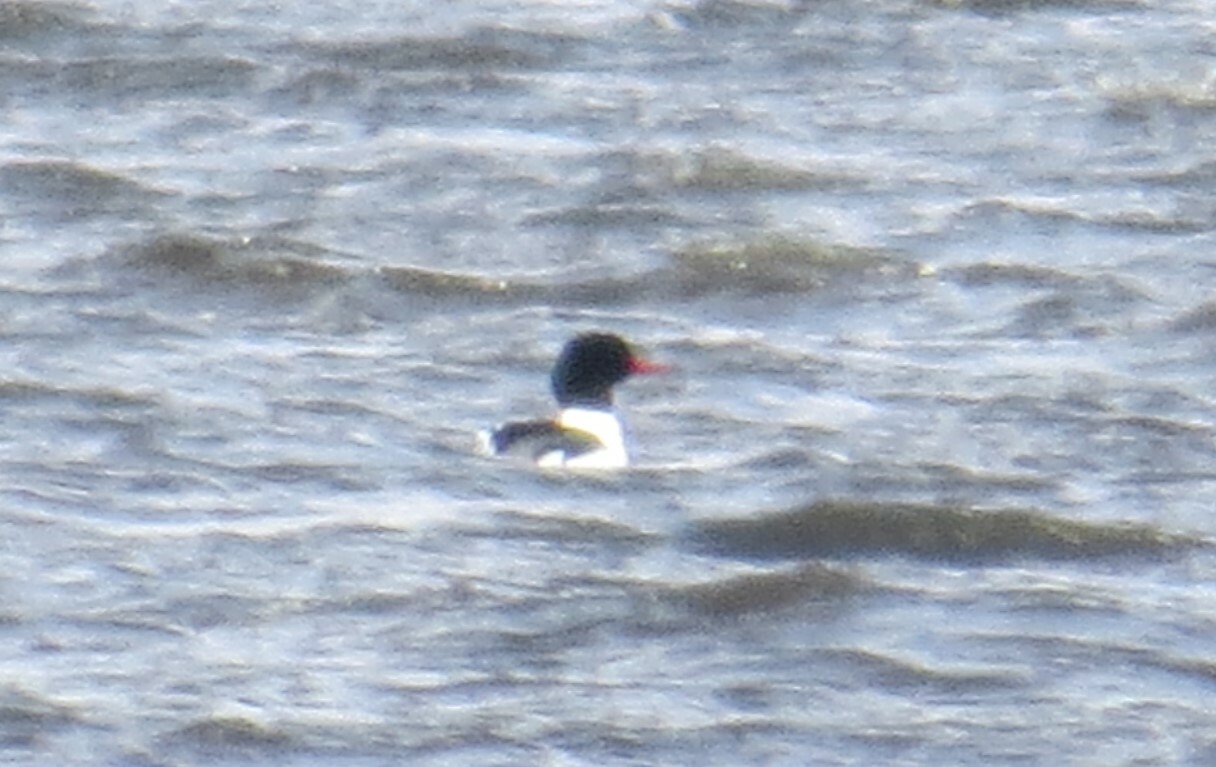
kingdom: Animalia
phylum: Chordata
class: Aves
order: Anseriformes
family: Anatidae
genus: Mergus
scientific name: Mergus merganser
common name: Common merganser
